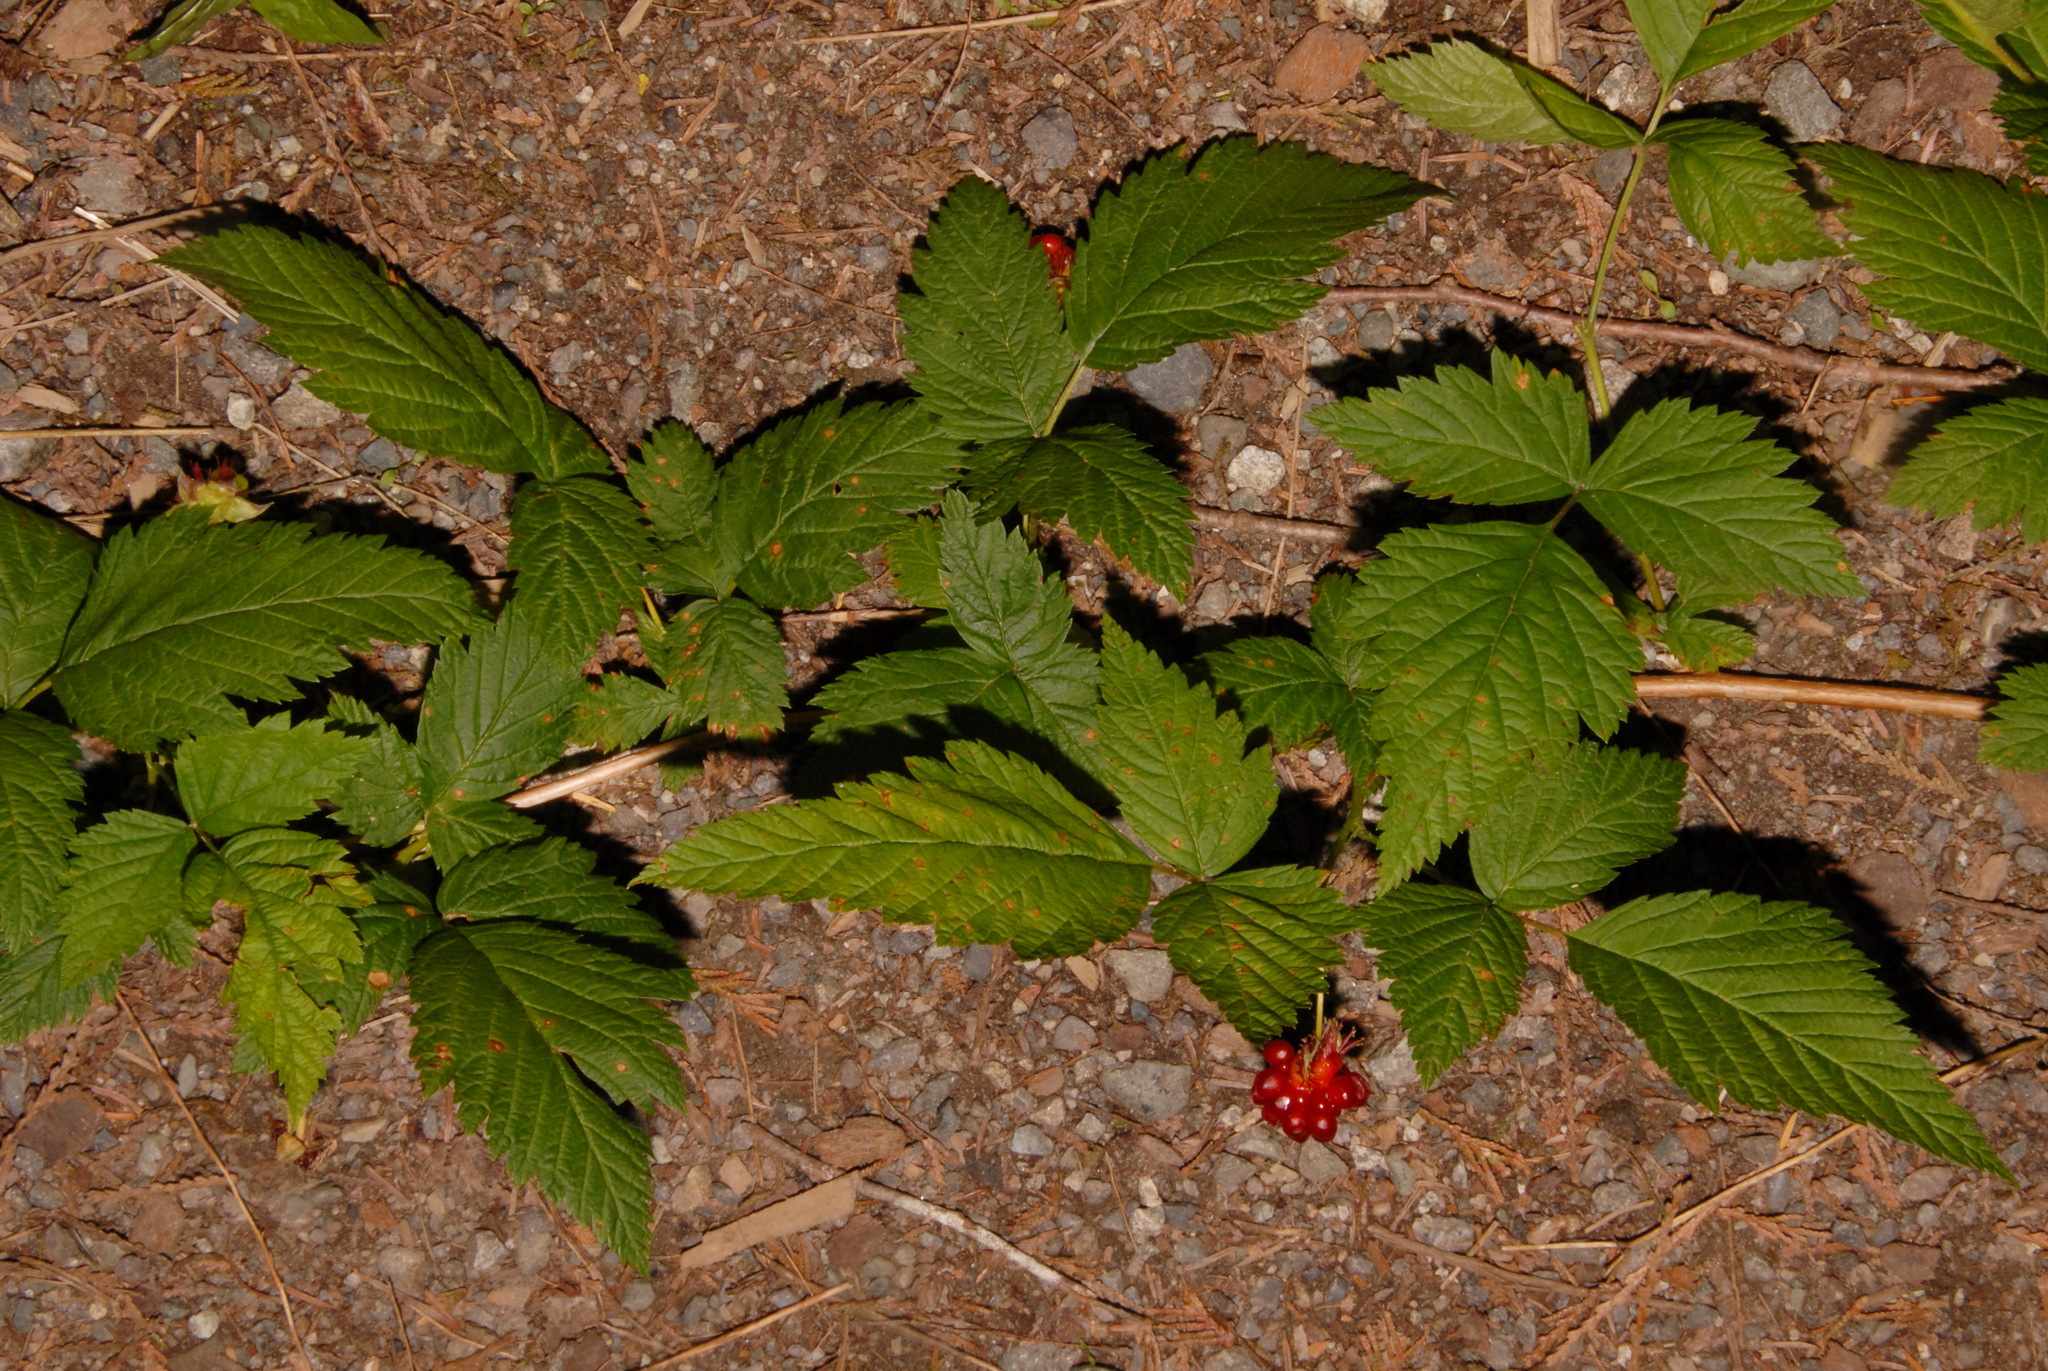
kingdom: Plantae
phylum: Tracheophyta
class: Magnoliopsida
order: Rosales
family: Rosaceae
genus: Rubus
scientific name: Rubus spectabilis
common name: Salmonberry
